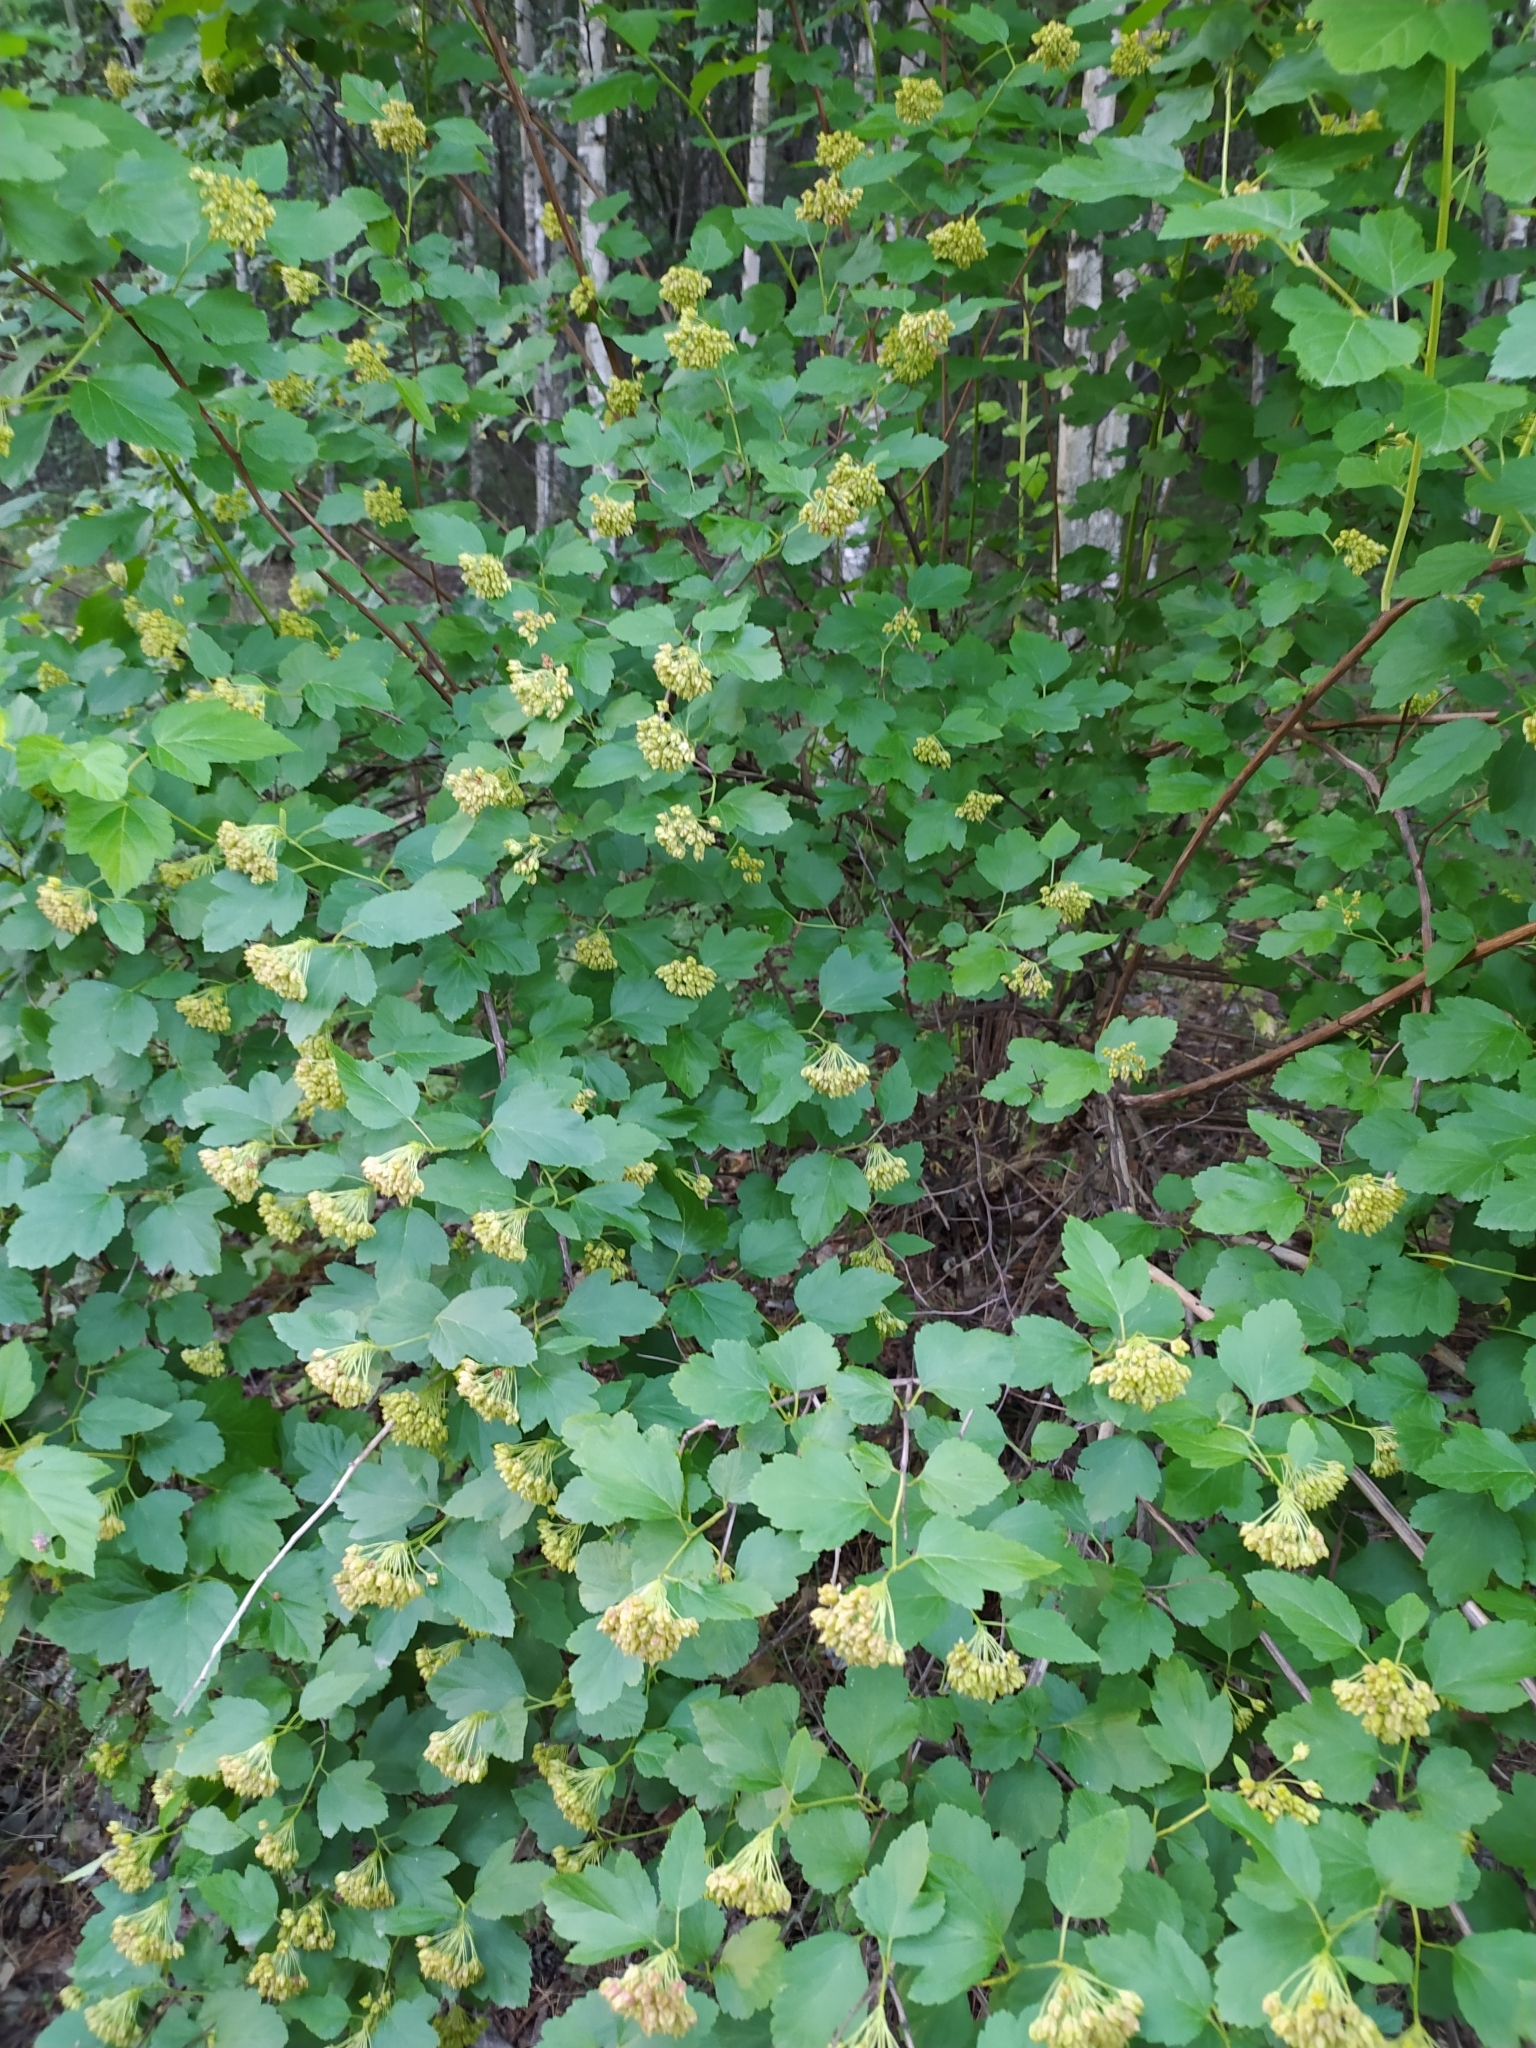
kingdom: Plantae
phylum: Tracheophyta
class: Magnoliopsida
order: Rosales
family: Rosaceae
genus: Physocarpus
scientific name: Physocarpus opulifolius
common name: Ninebark
